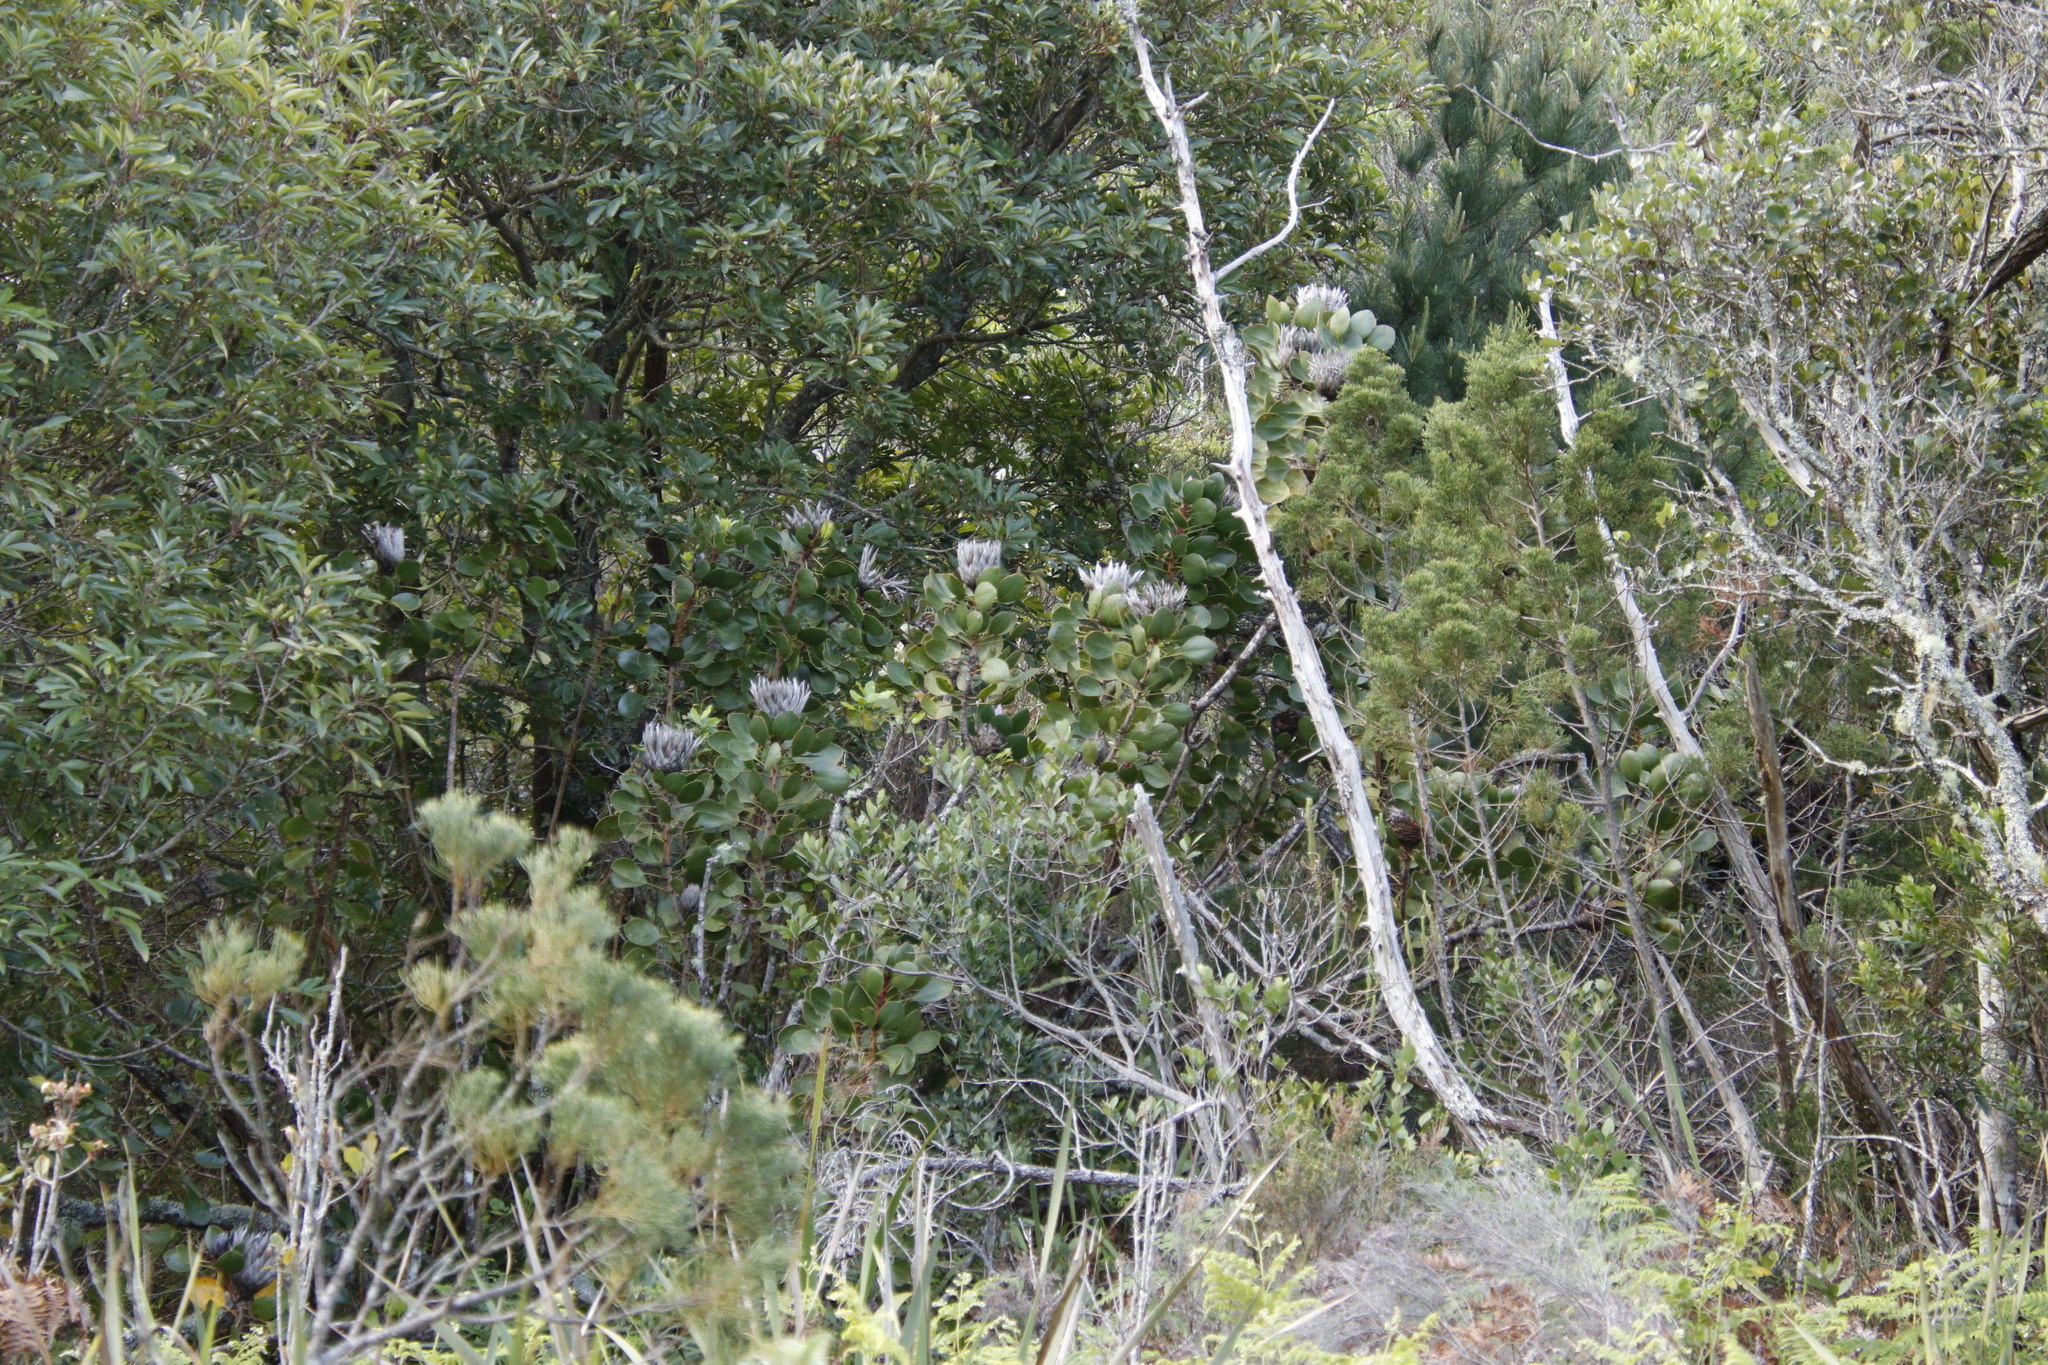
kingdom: Plantae
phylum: Tracheophyta
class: Magnoliopsida
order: Proteales
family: Proteaceae
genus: Protea
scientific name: Protea cynaroides
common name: King protea
